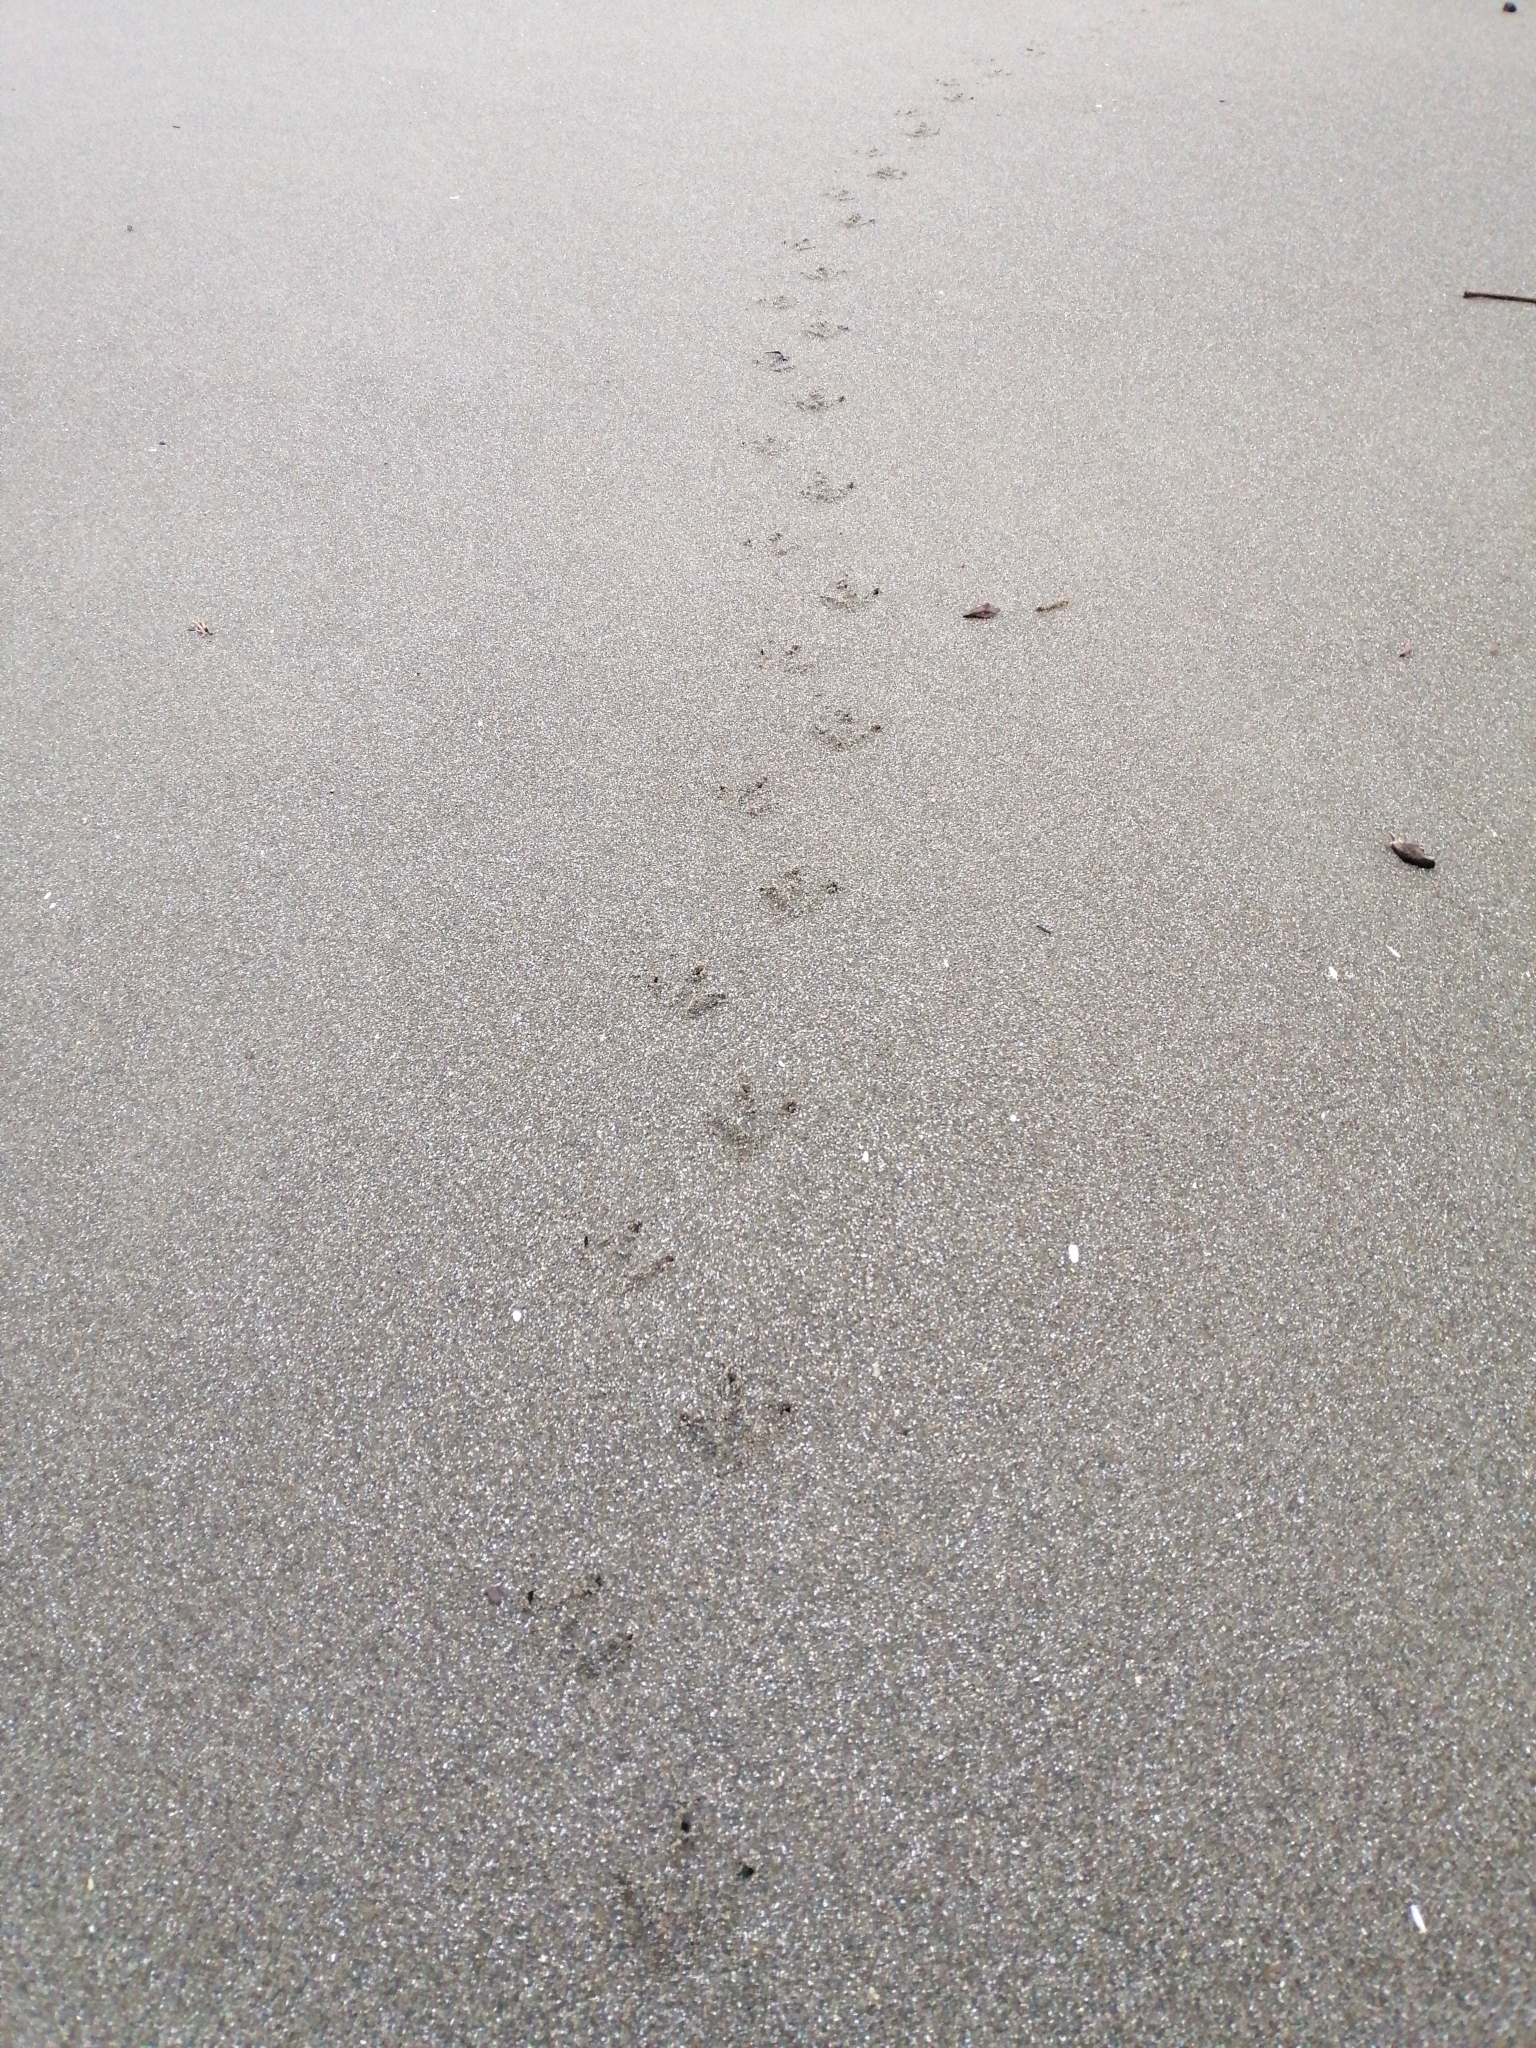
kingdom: Animalia
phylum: Chordata
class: Aves
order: Sphenisciformes
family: Spheniscidae
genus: Eudyptula
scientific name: Eudyptula minor
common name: Little penguin
